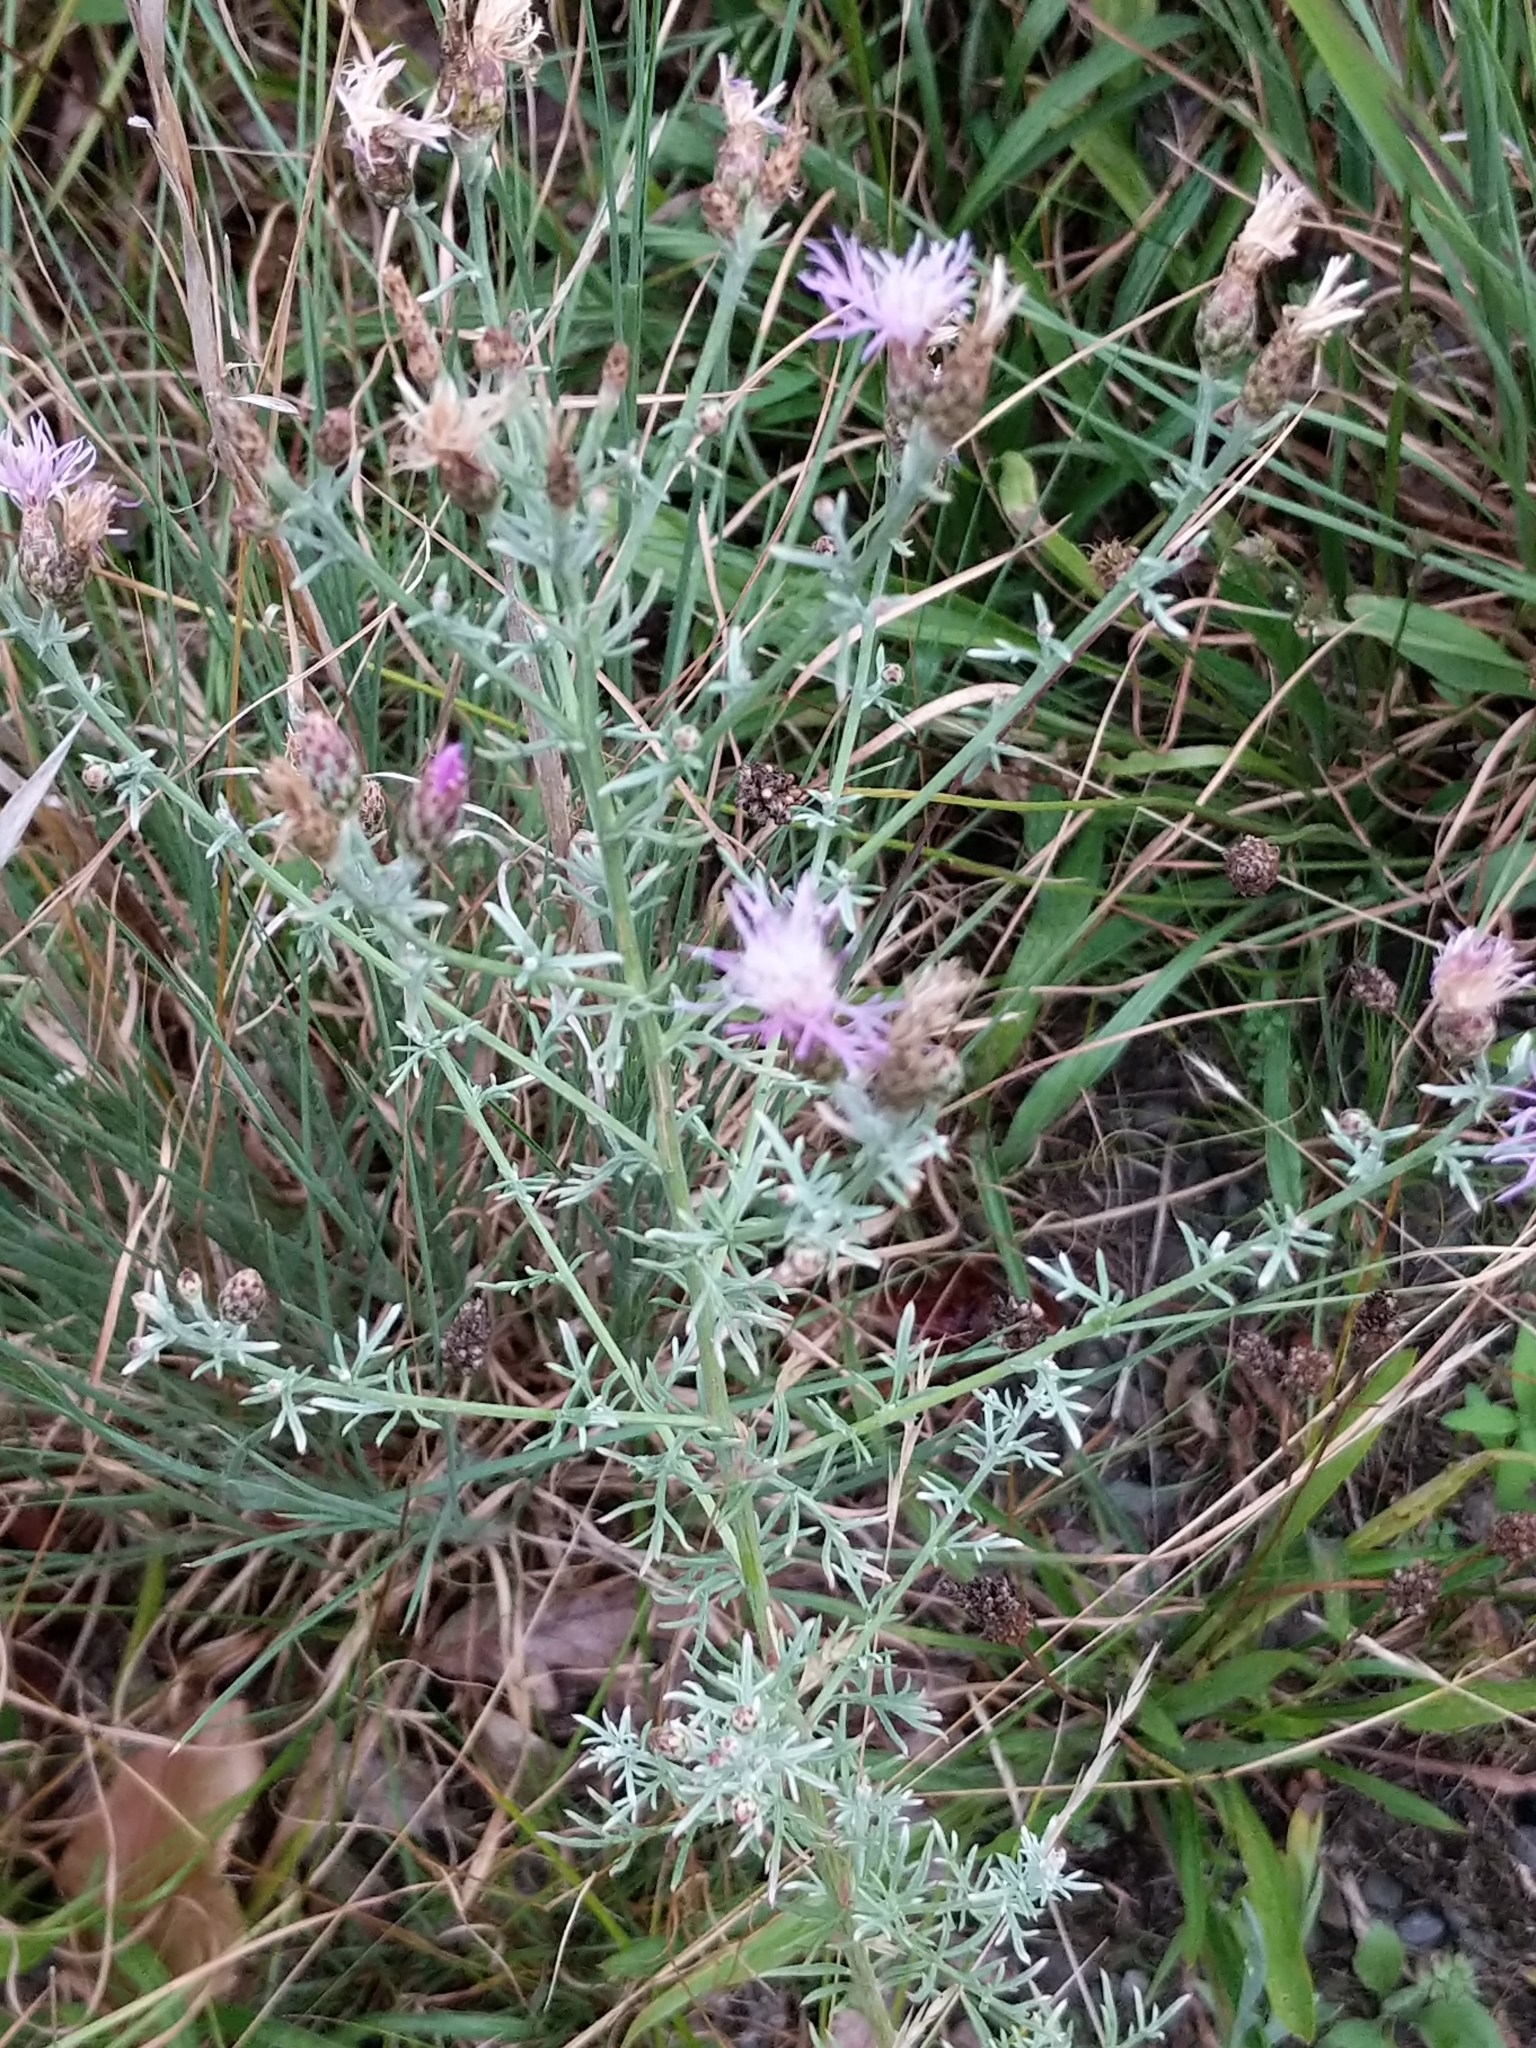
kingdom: Plantae
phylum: Tracheophyta
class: Magnoliopsida
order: Asterales
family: Asteraceae
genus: Centaurea
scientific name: Centaurea stoebe
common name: Spotted knapweed
